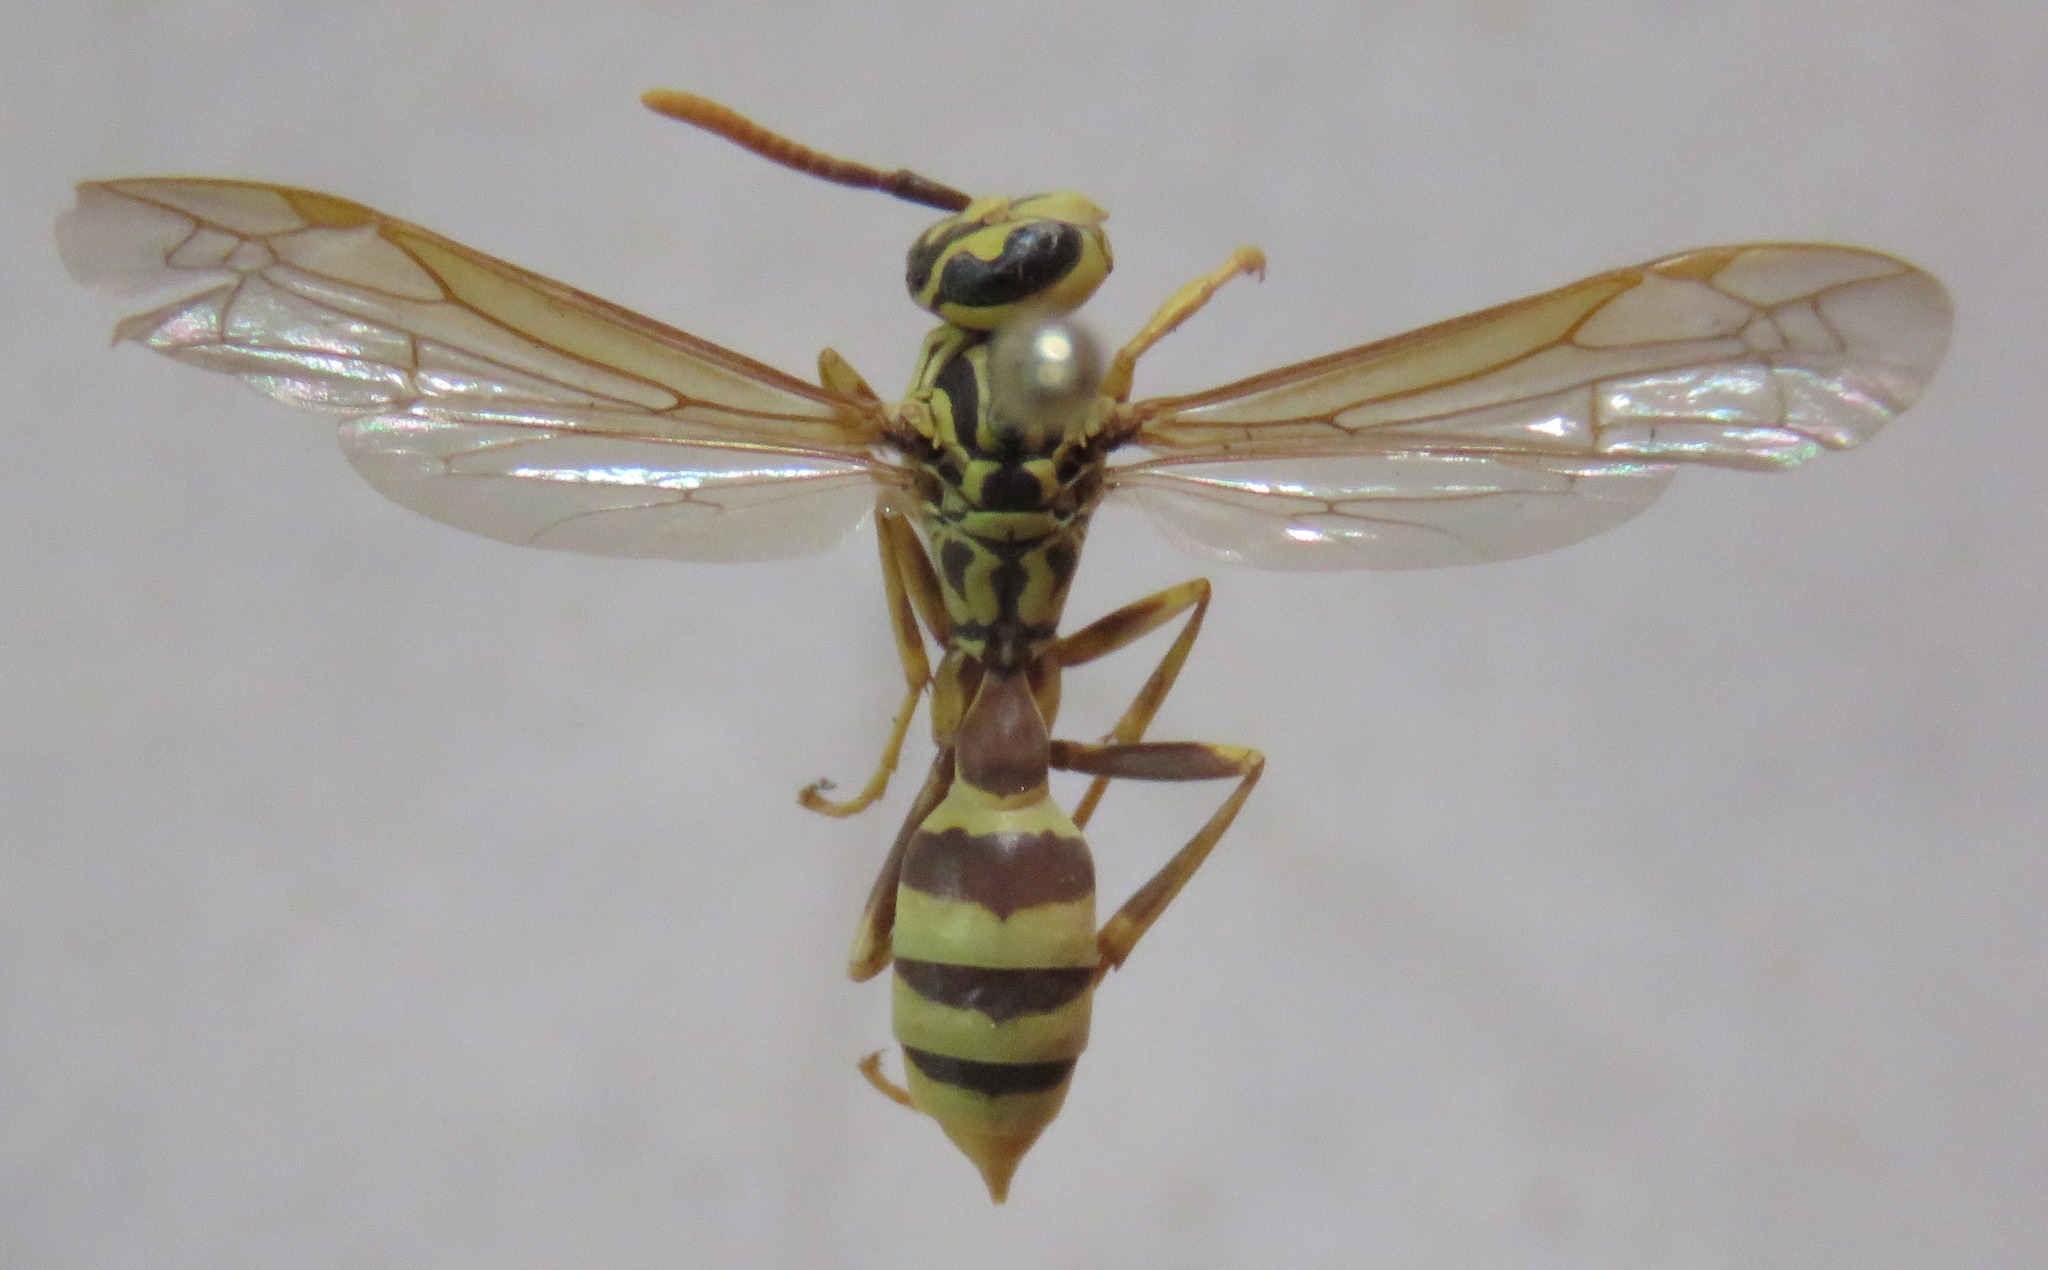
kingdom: Animalia
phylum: Arthropoda
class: Insecta
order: Hymenoptera
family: Vespidae
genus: Agelaia
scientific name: Agelaia areata
